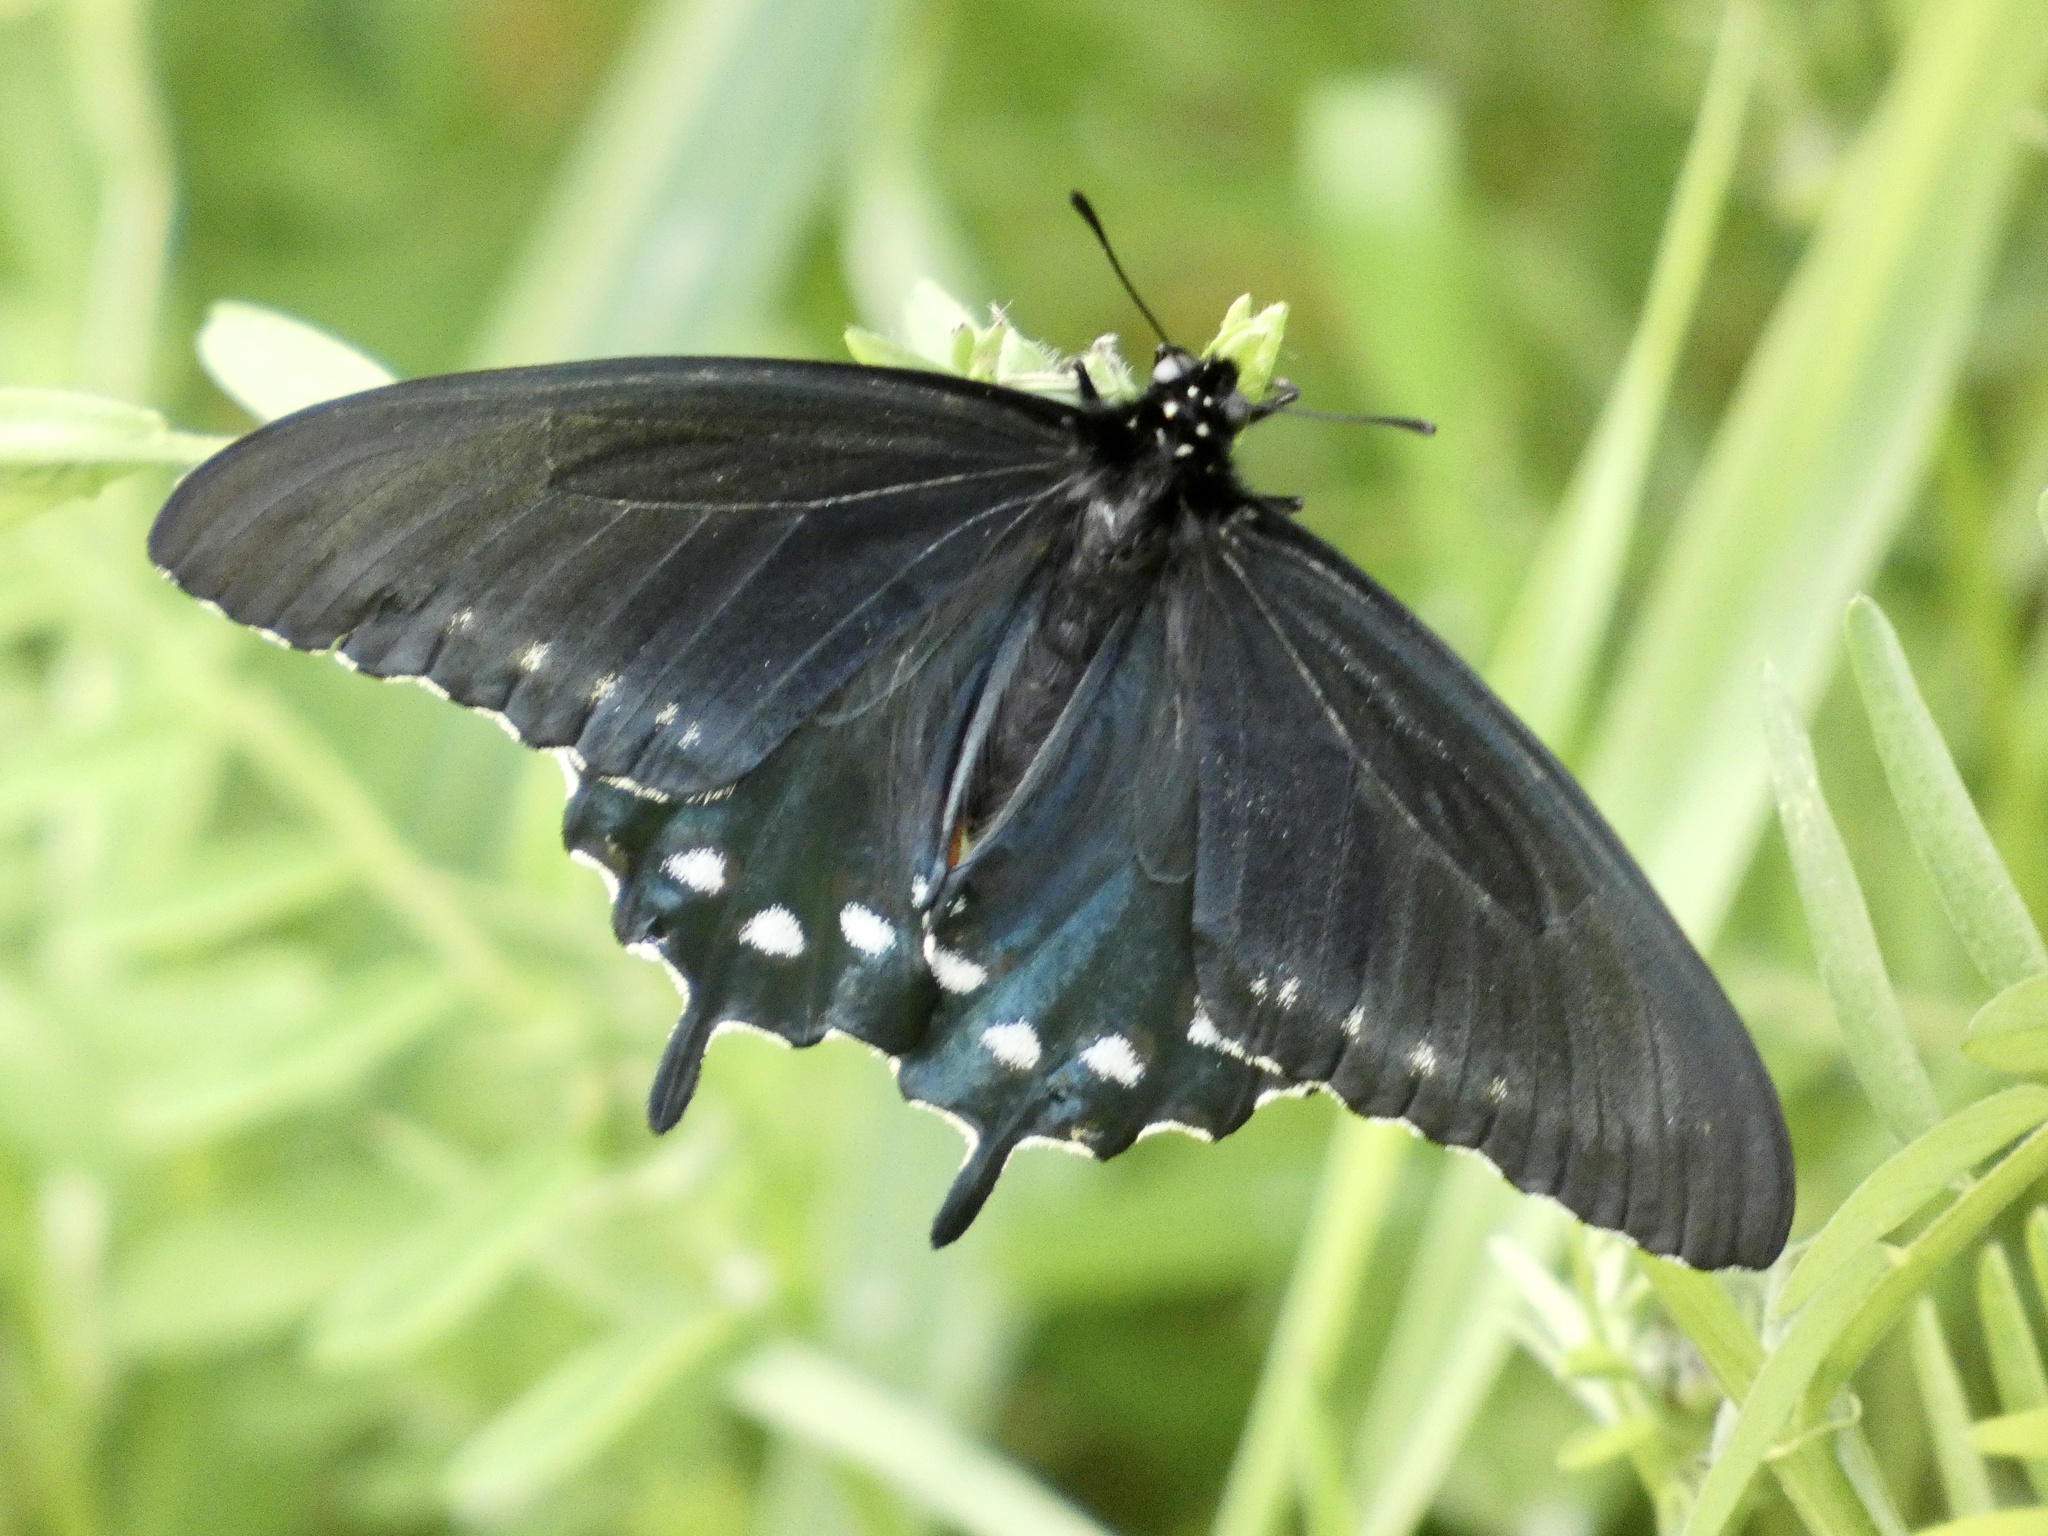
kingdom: Animalia
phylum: Arthropoda
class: Insecta
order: Lepidoptera
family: Papilionidae
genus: Battus
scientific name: Battus philenor
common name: Pipevine swallowtail
